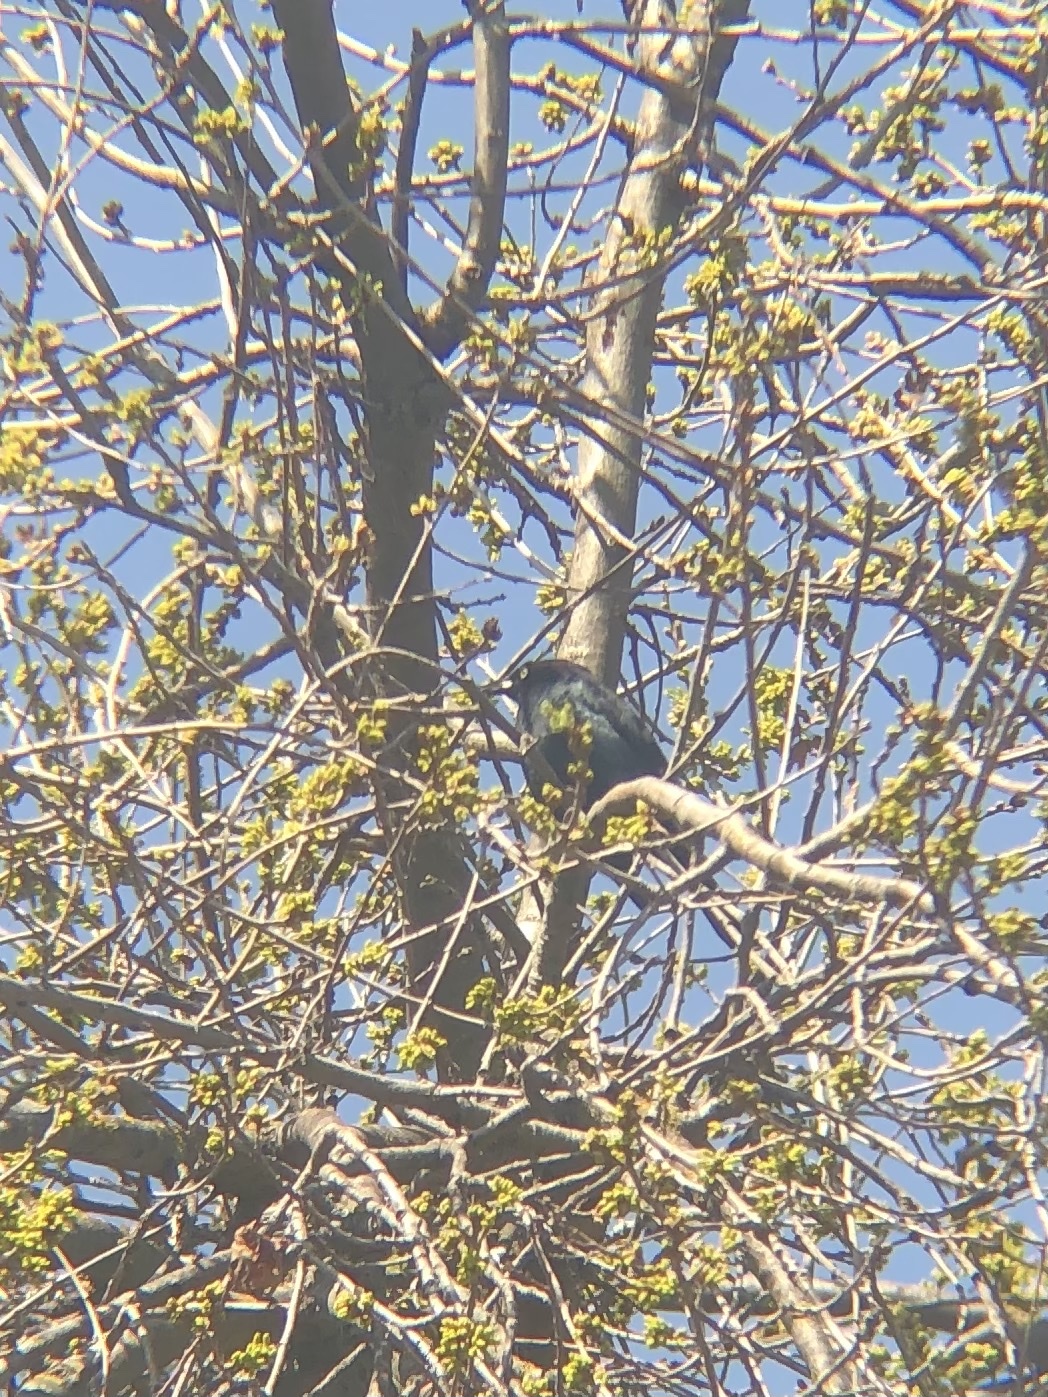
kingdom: Animalia
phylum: Chordata
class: Aves
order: Passeriformes
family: Icteridae
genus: Euphagus
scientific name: Euphagus cyanocephalus
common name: Brewer's blackbird
